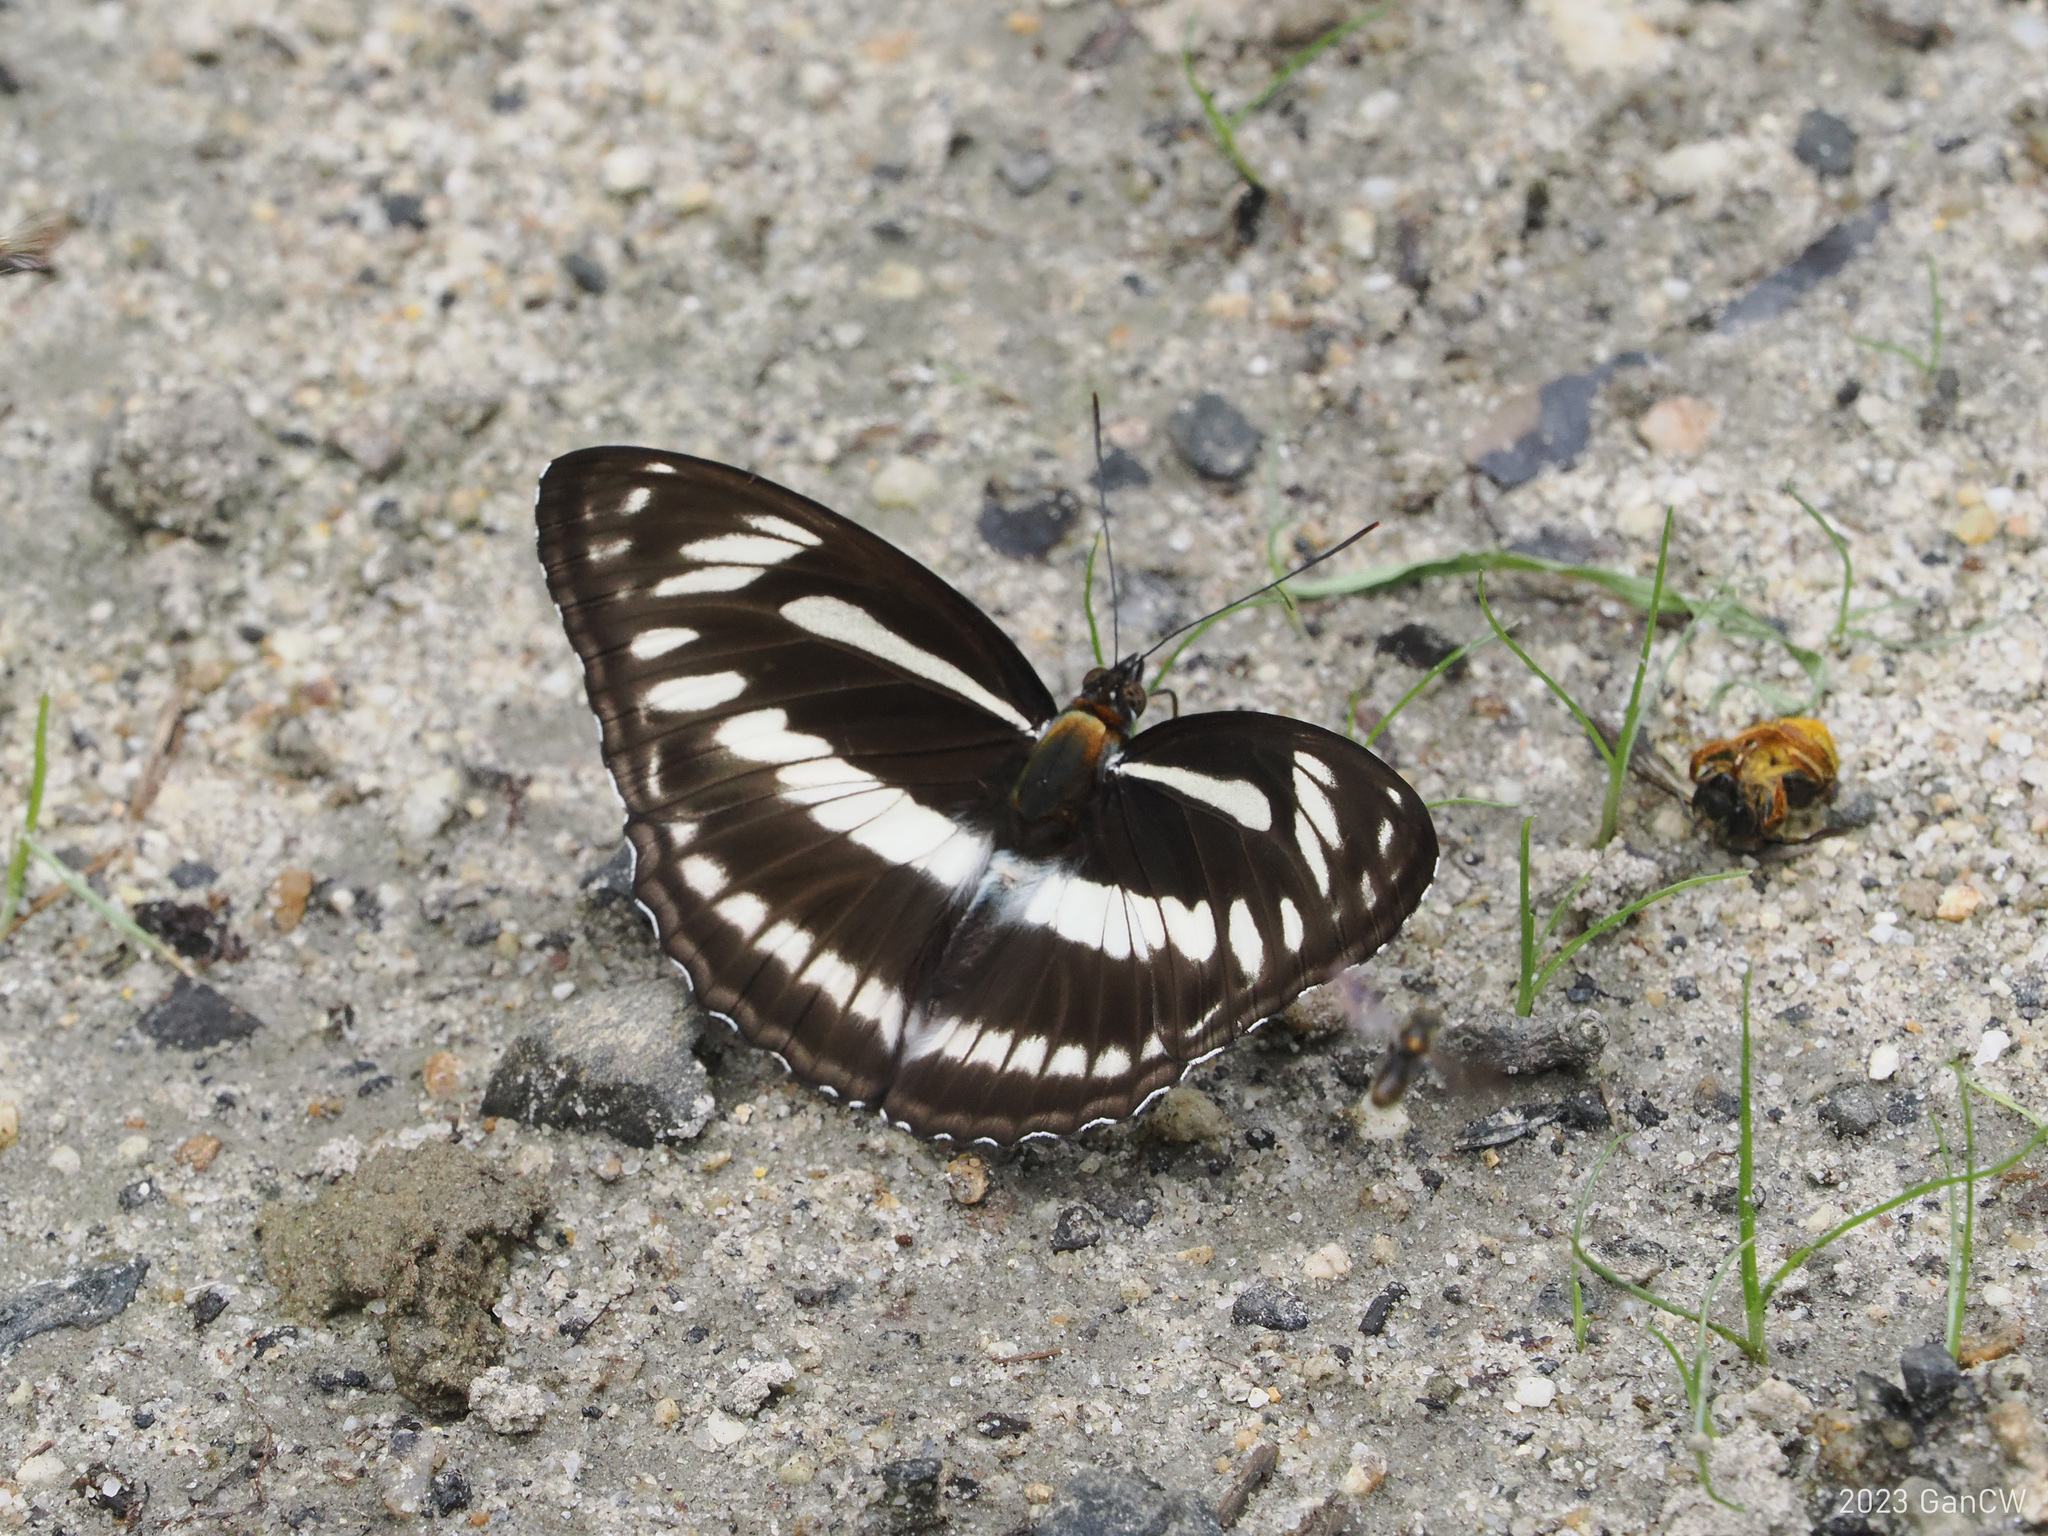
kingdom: Animalia
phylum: Arthropoda
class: Insecta
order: Lepidoptera
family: Nymphalidae
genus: Pantoporia
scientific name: Pantoporia jina
